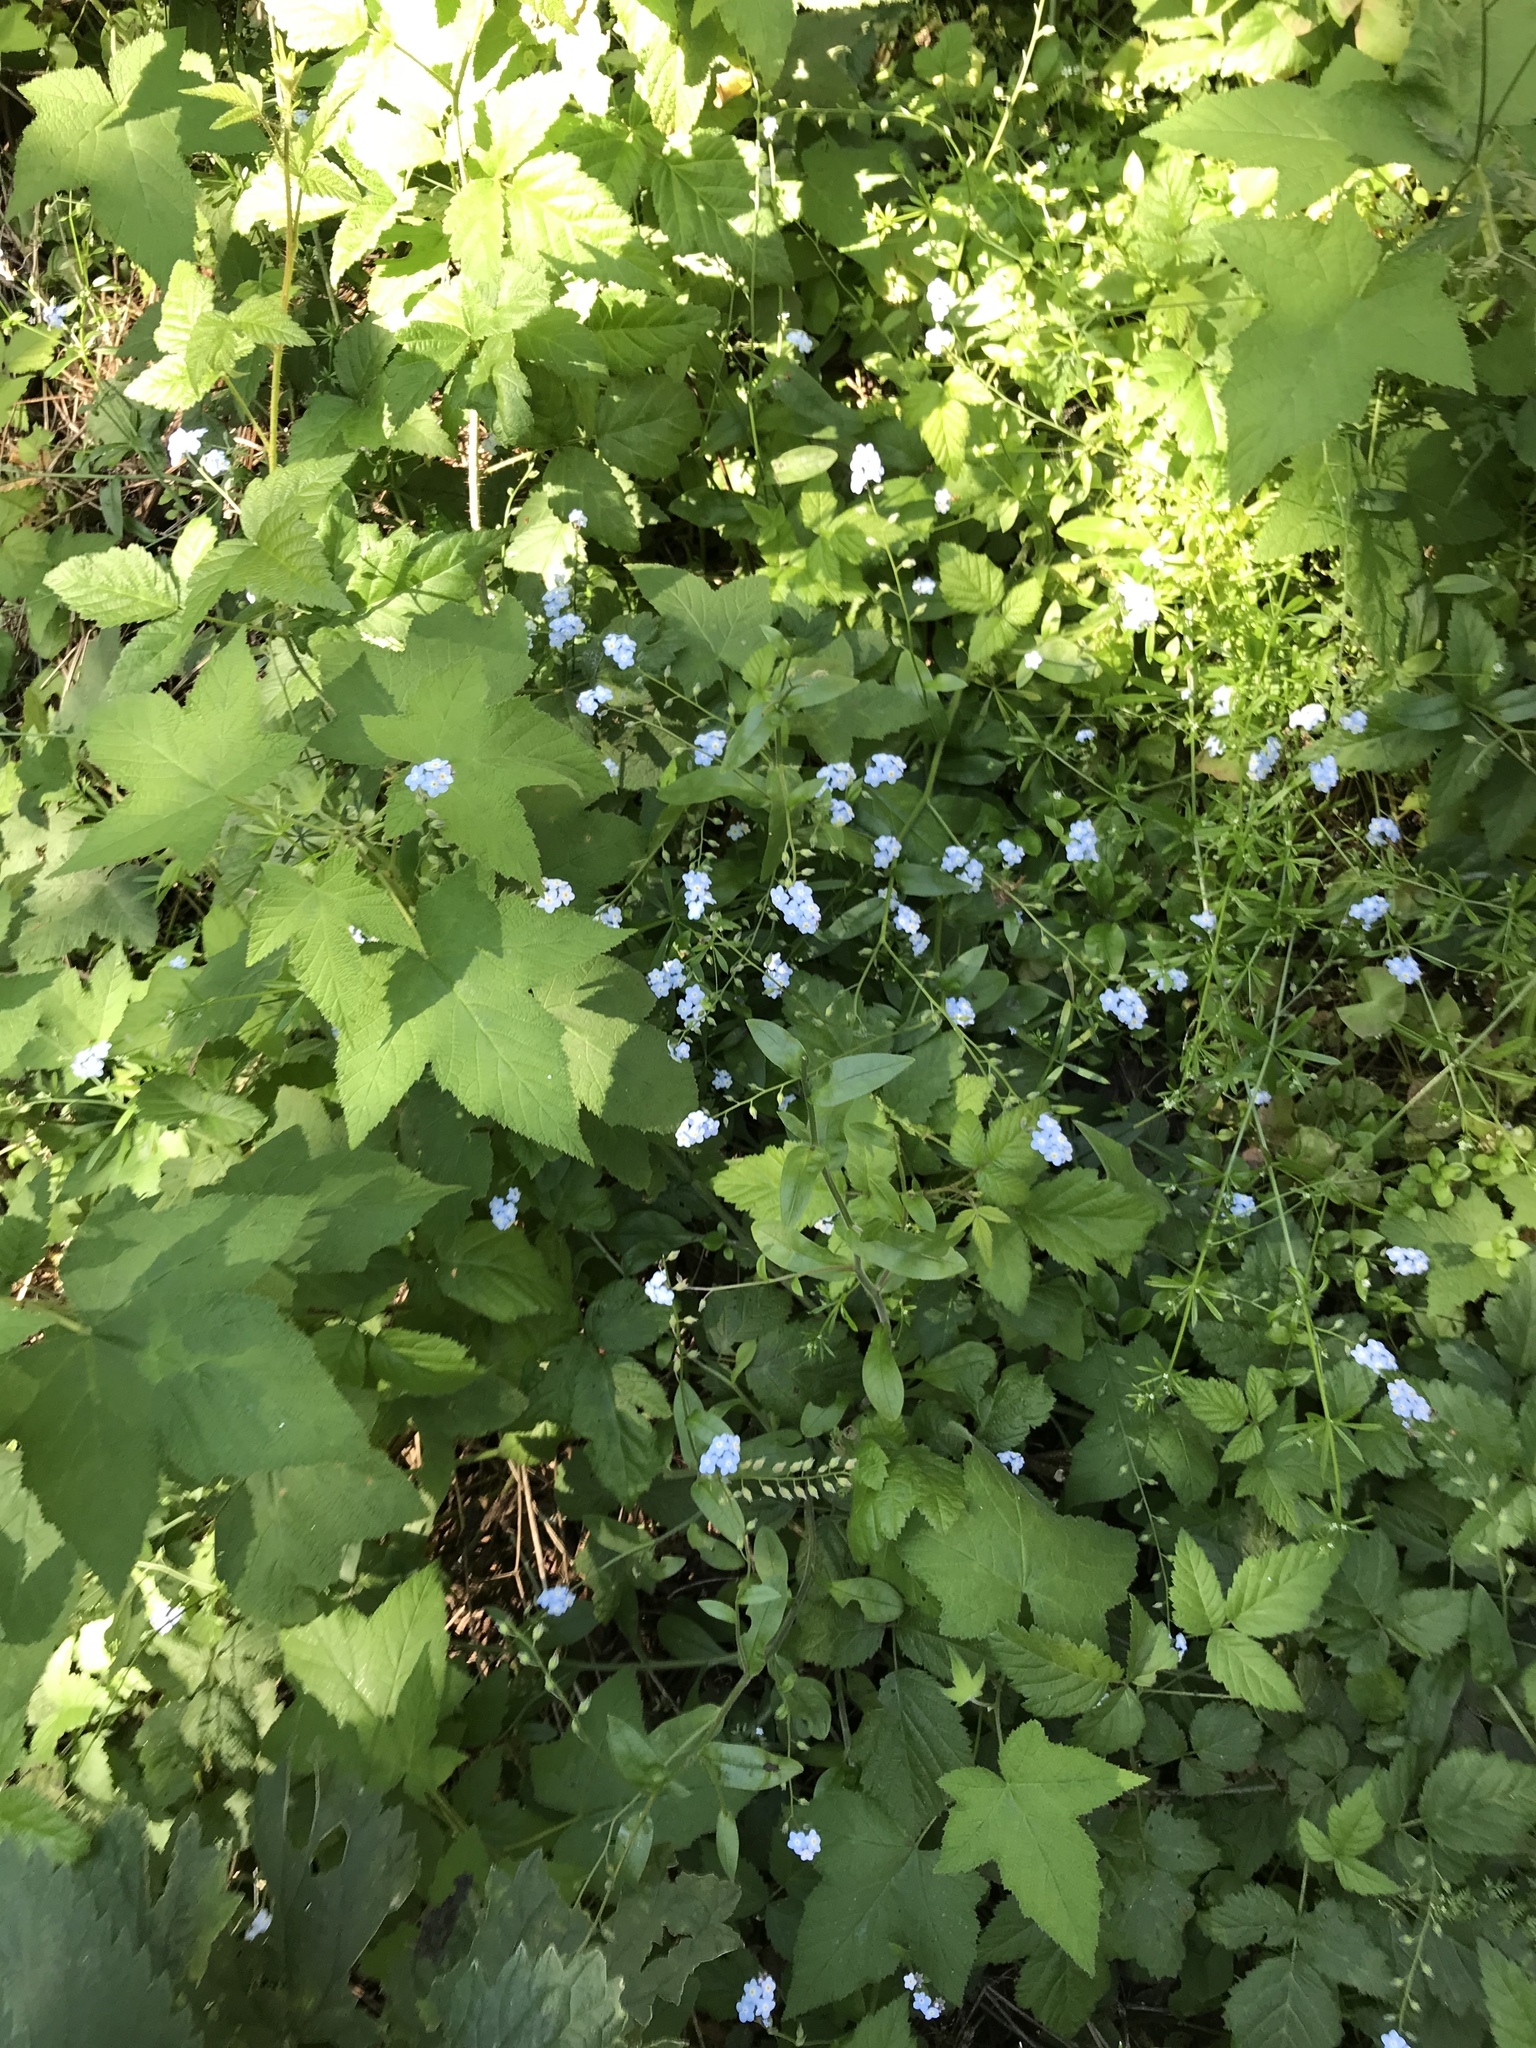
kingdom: Plantae
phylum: Tracheophyta
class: Magnoliopsida
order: Boraginales
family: Boraginaceae
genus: Myosotis
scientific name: Myosotis latifolia
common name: Broadleaf forget-me-not
